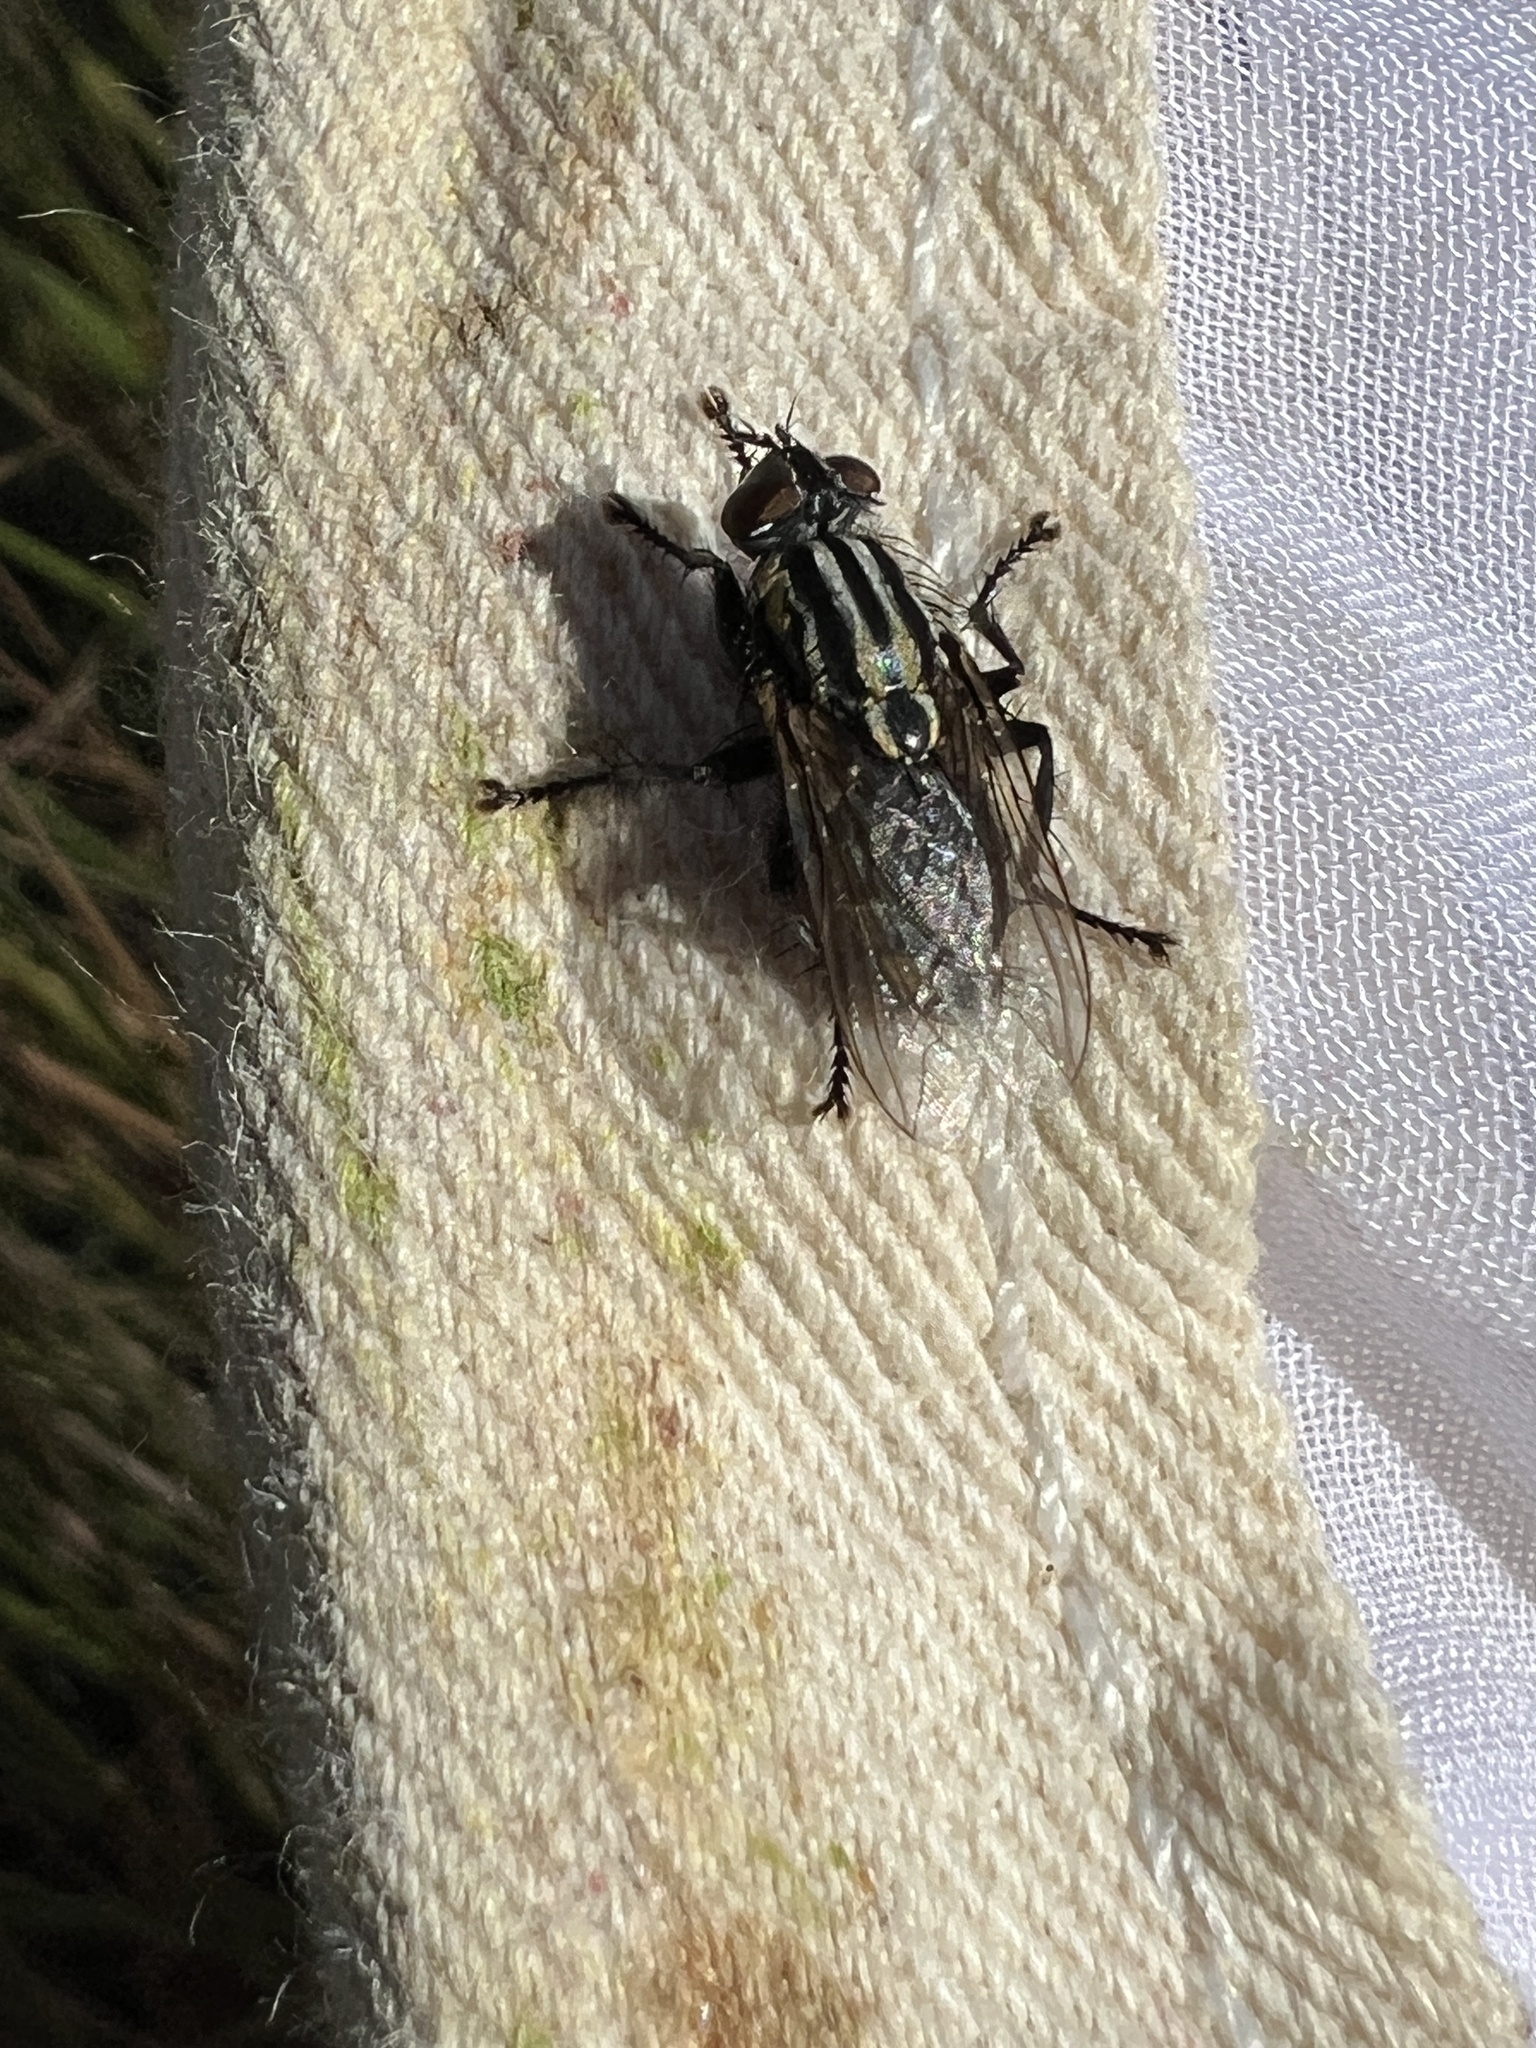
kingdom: Animalia
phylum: Arthropoda
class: Insecta
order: Diptera
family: Sarcophagidae
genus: Oxysarcodexia
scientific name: Oxysarcodexia varia
